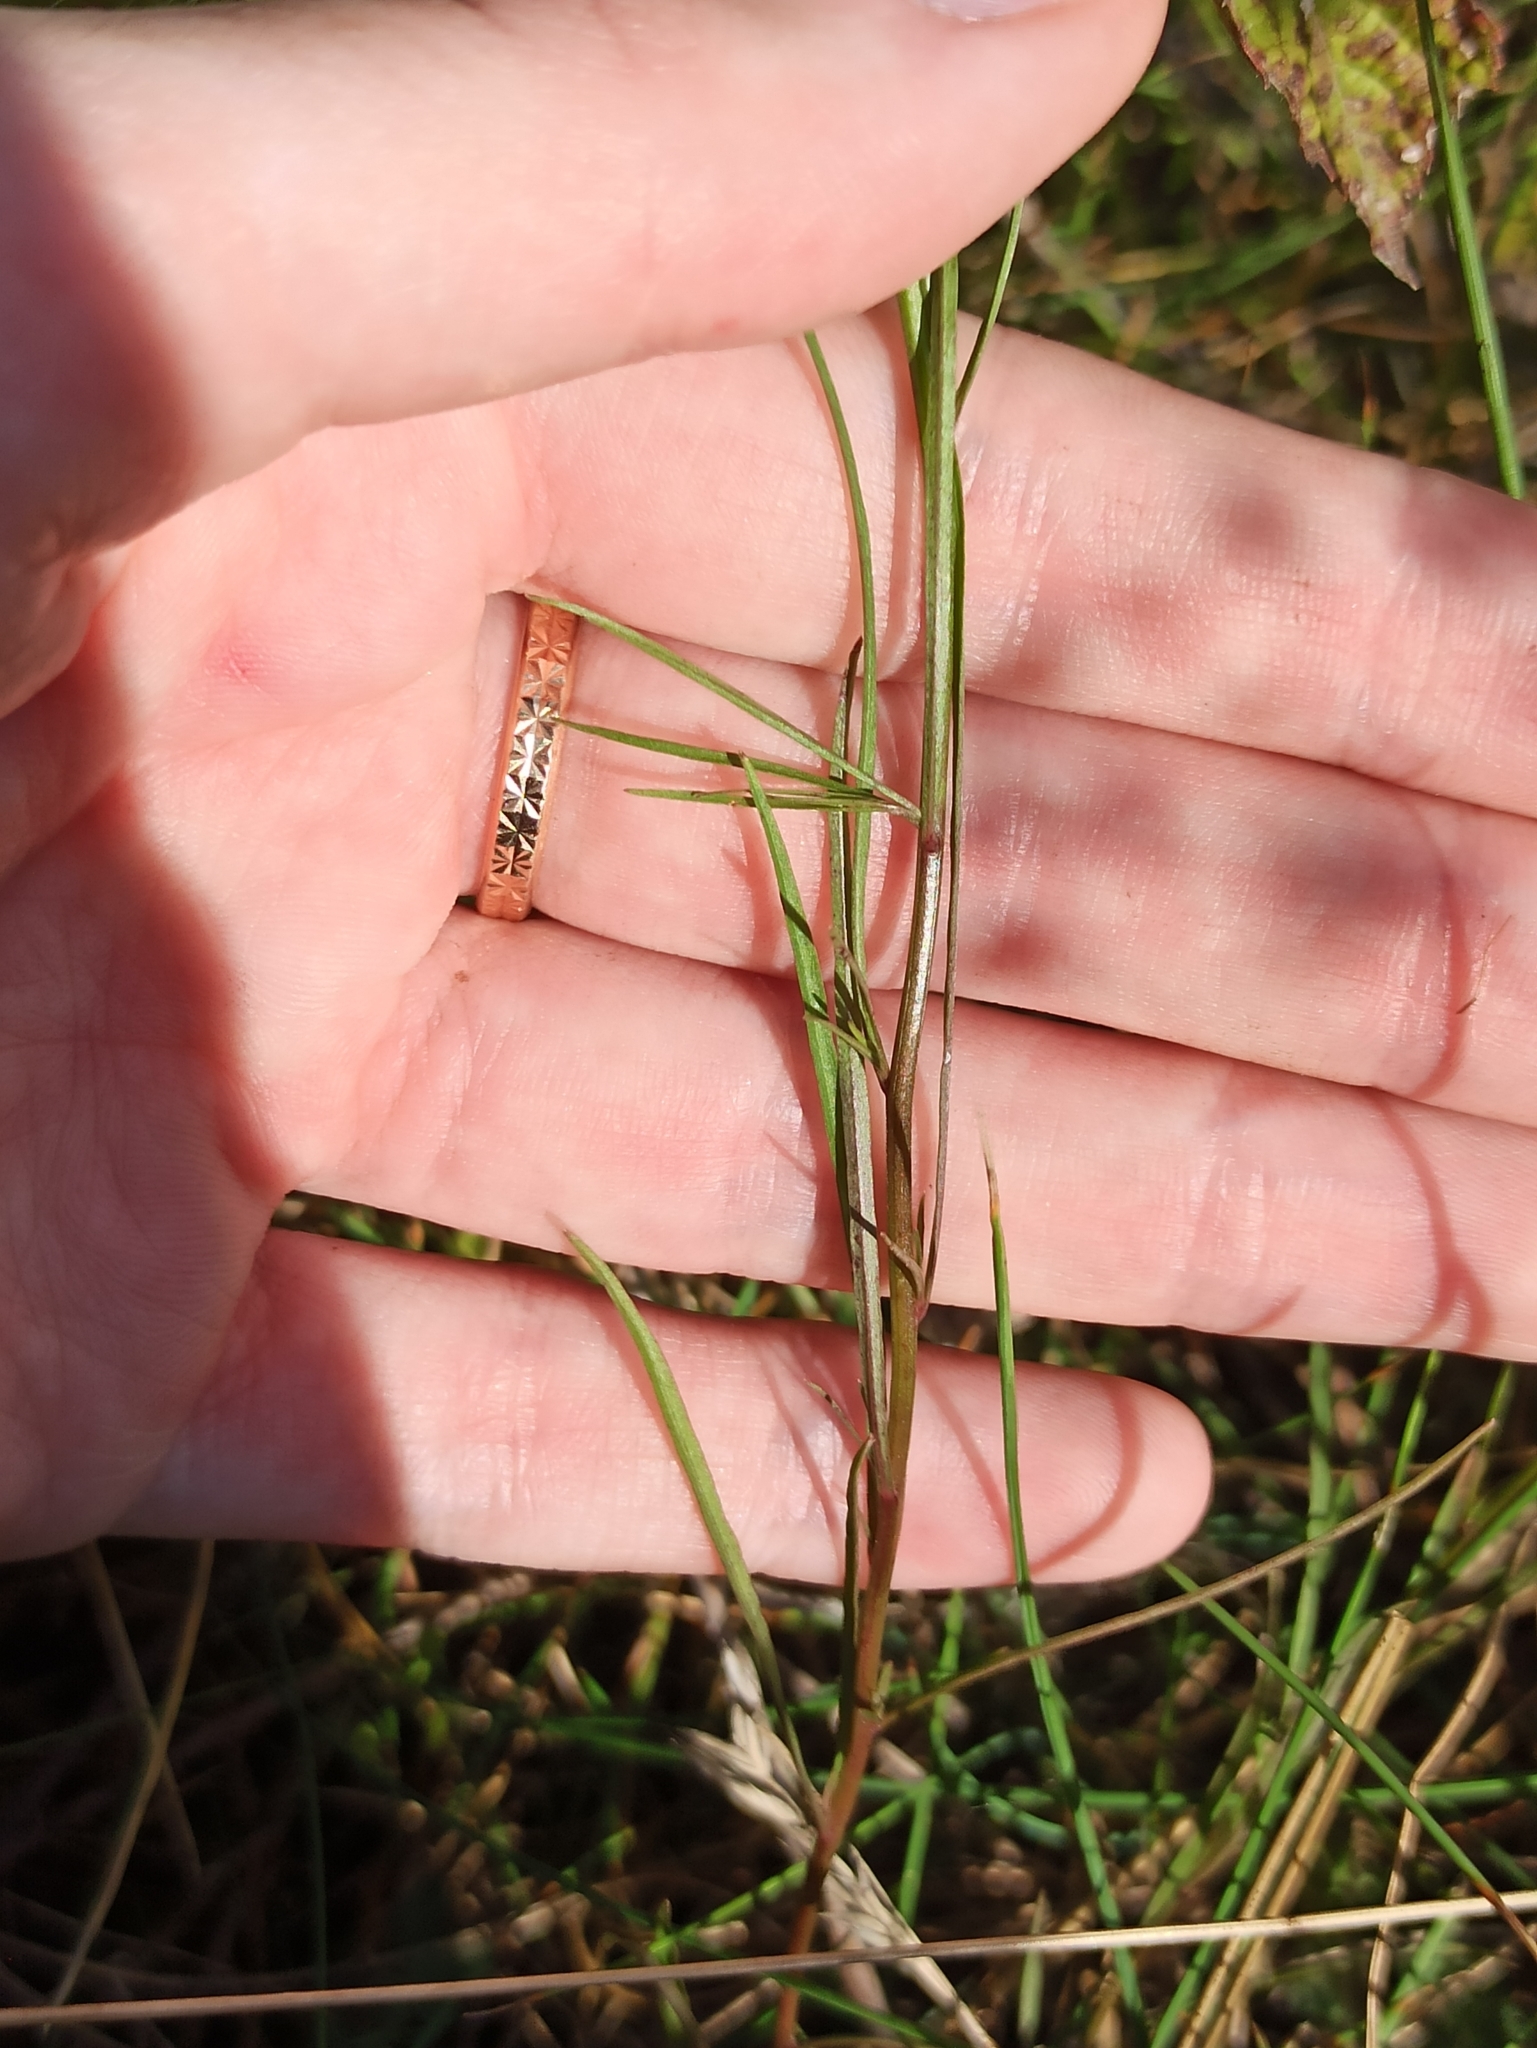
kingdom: Plantae
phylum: Tracheophyta
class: Magnoliopsida
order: Asterales
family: Campanulaceae
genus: Campanula
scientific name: Campanula rotundifolia
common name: Harebell
